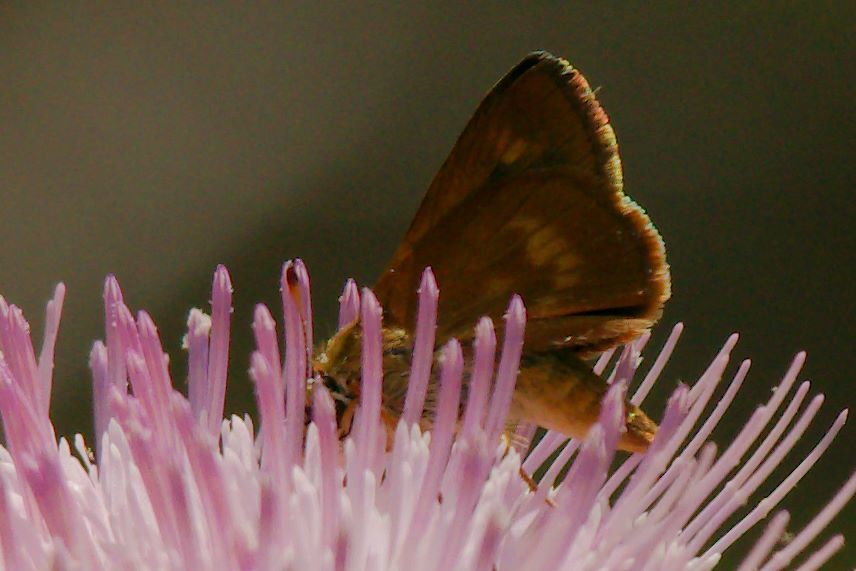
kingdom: Animalia
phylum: Arthropoda
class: Insecta
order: Lepidoptera
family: Hesperiidae
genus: Polites
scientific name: Polites otho
